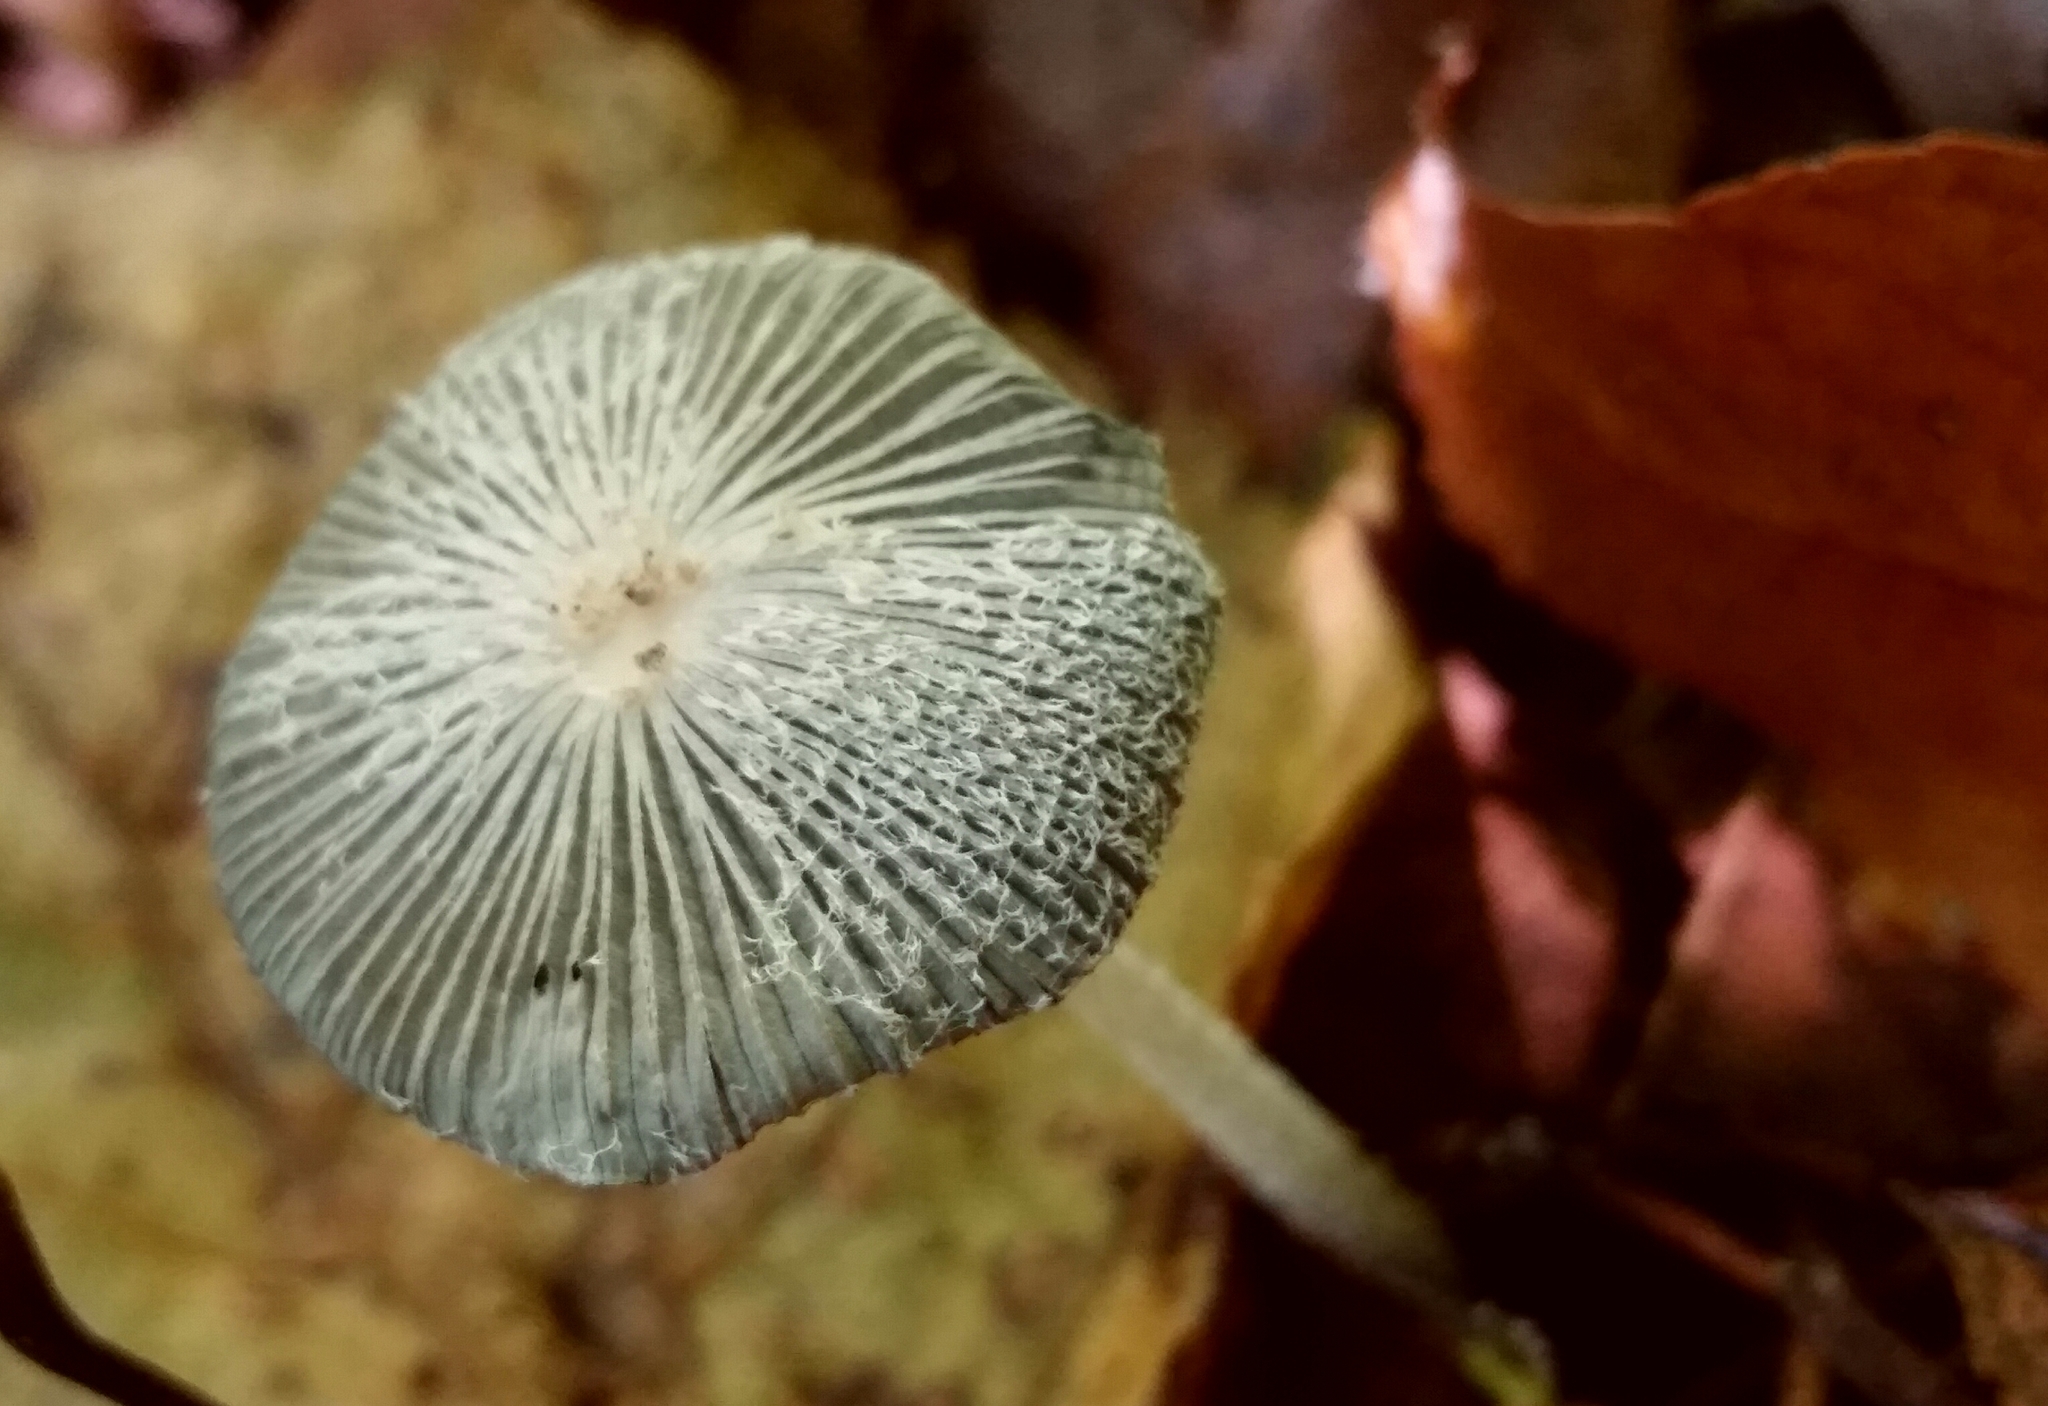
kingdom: Fungi
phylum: Basidiomycota
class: Agaricomycetes
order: Agaricales
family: Psathyrellaceae
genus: Coprinopsis
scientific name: Coprinopsis lagopus
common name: Hare'sfoot inkcap
